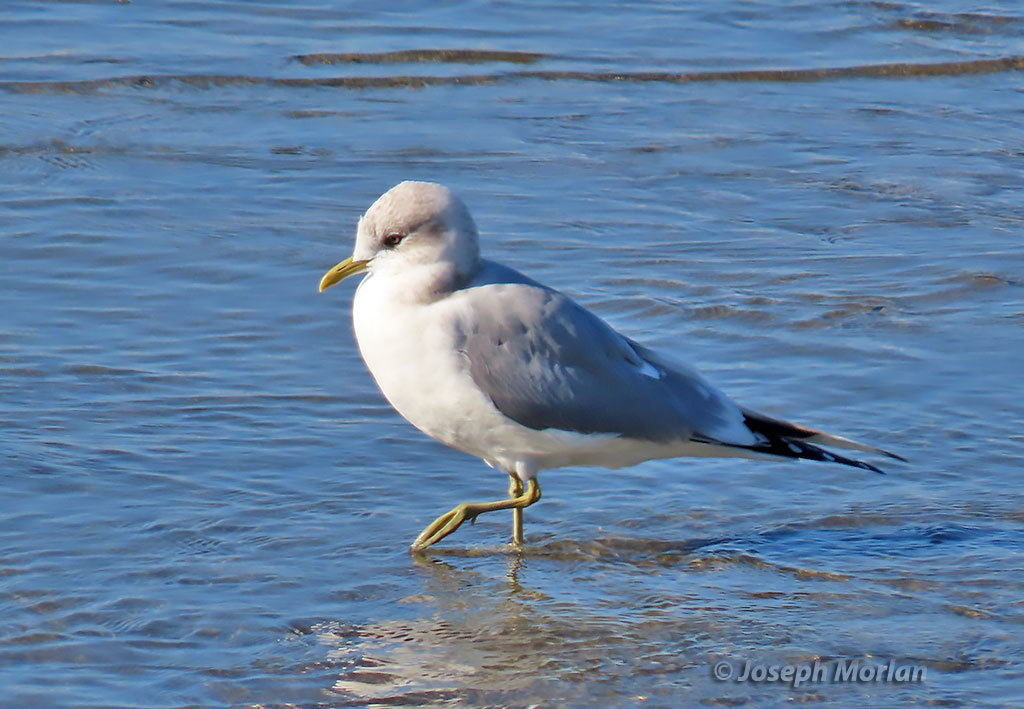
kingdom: Animalia
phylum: Chordata
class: Aves
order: Charadriiformes
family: Laridae
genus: Larus
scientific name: Larus brachyrhynchus
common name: Short-billed gull
